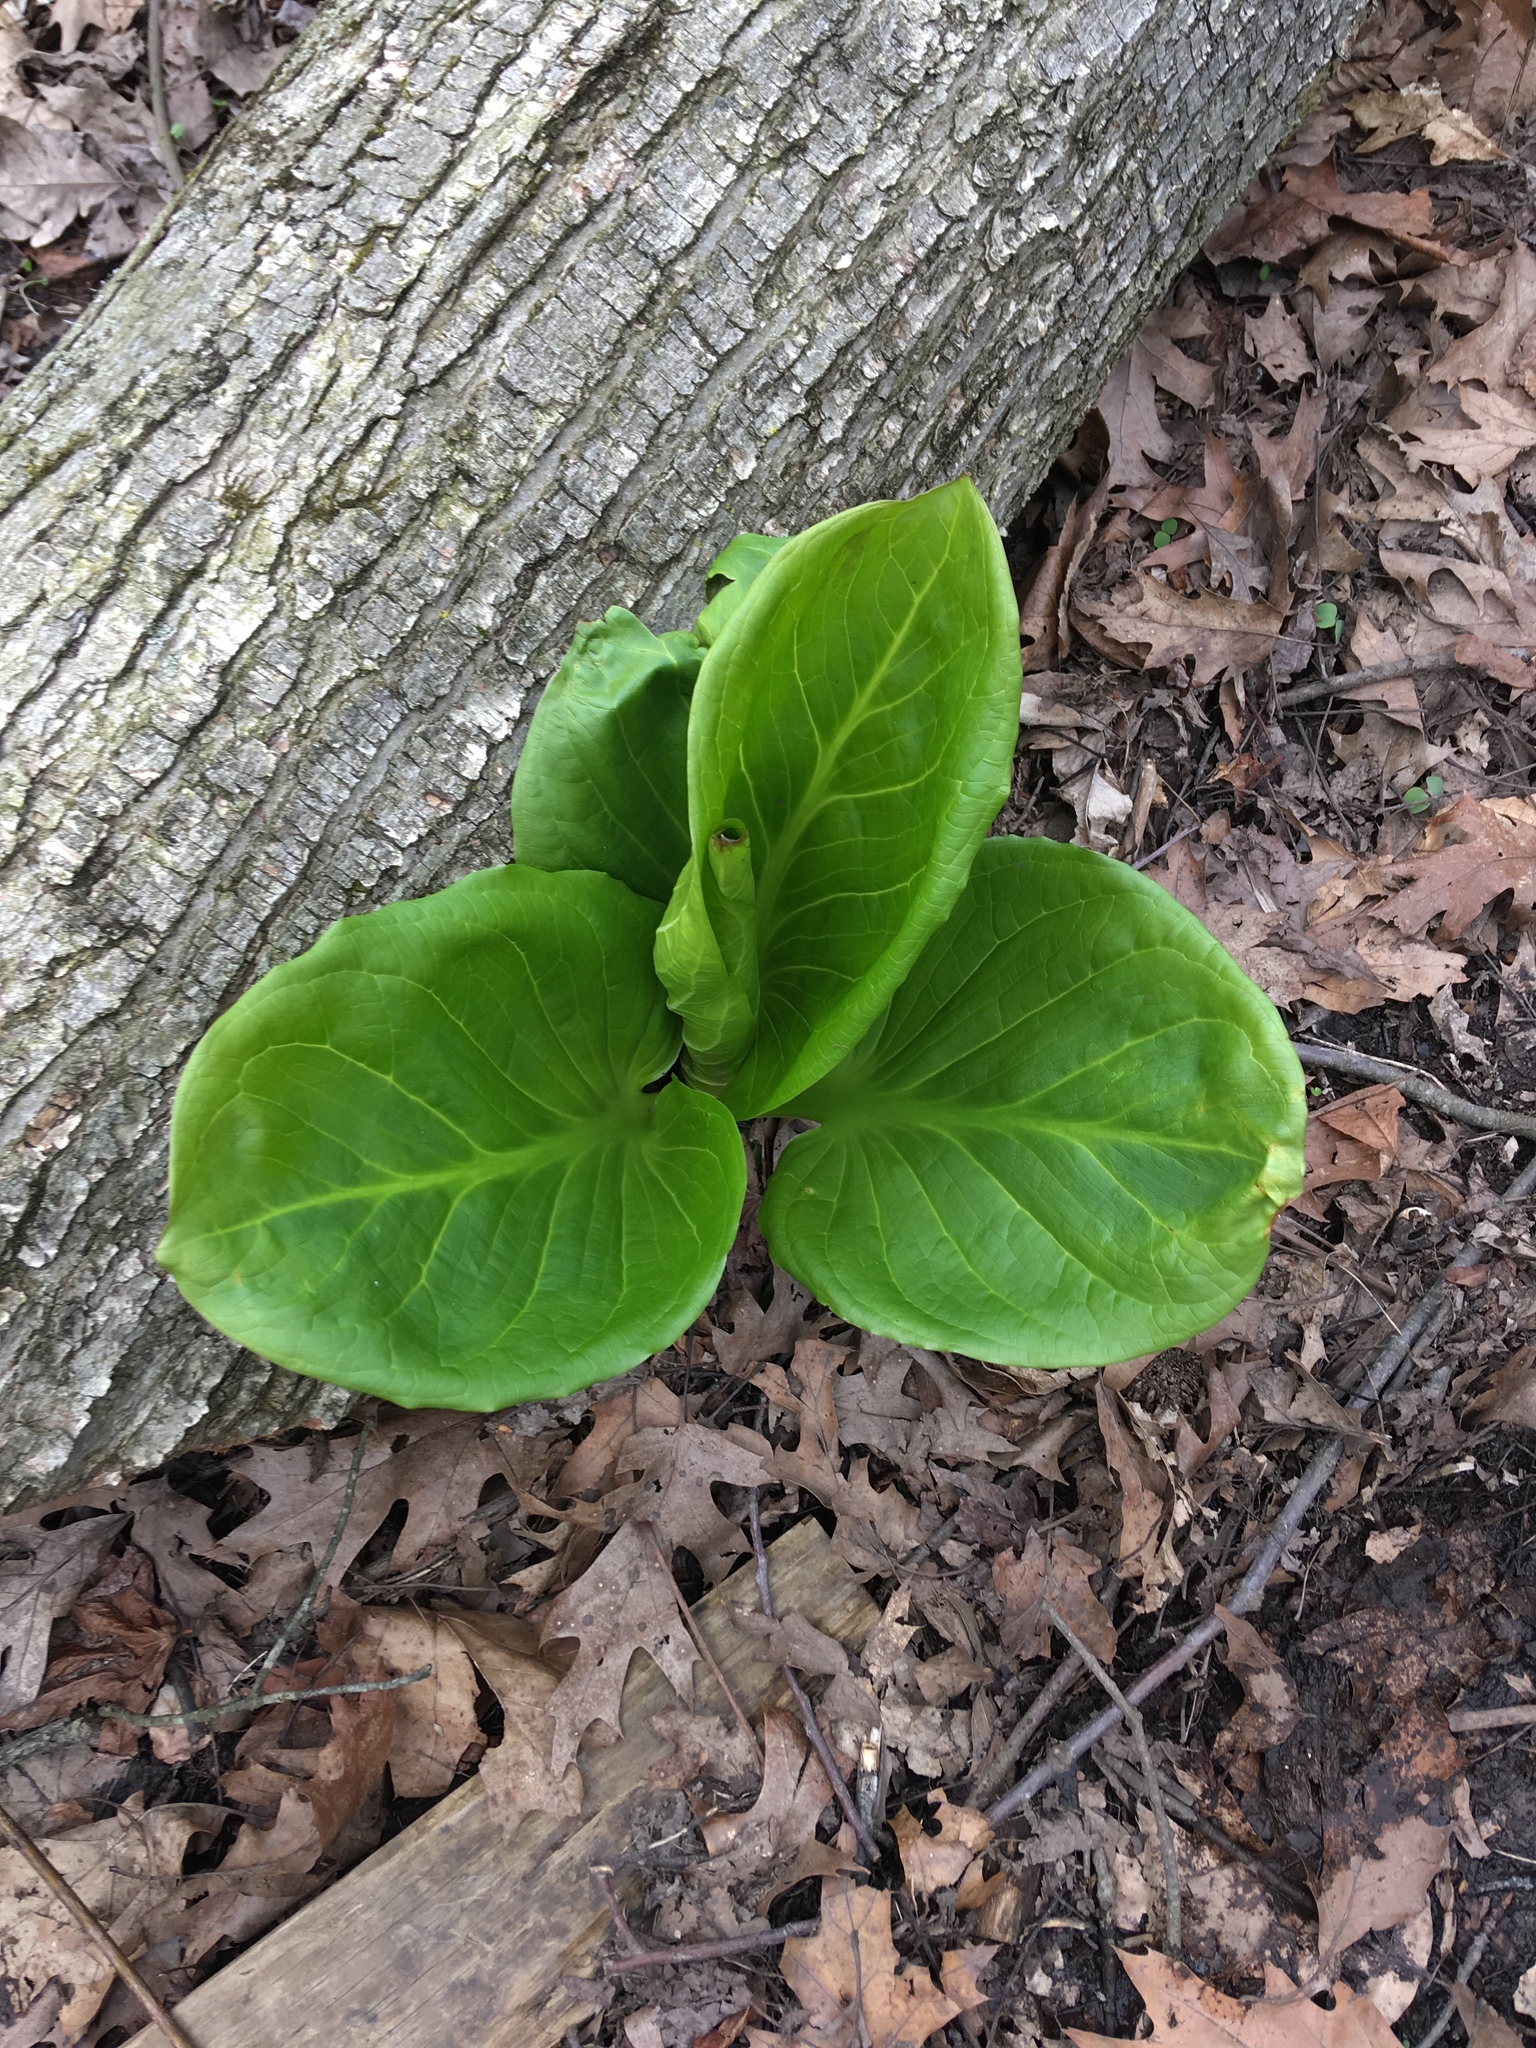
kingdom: Plantae
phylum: Tracheophyta
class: Liliopsida
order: Alismatales
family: Araceae
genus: Symplocarpus
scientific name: Symplocarpus foetidus
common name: Eastern skunk cabbage
